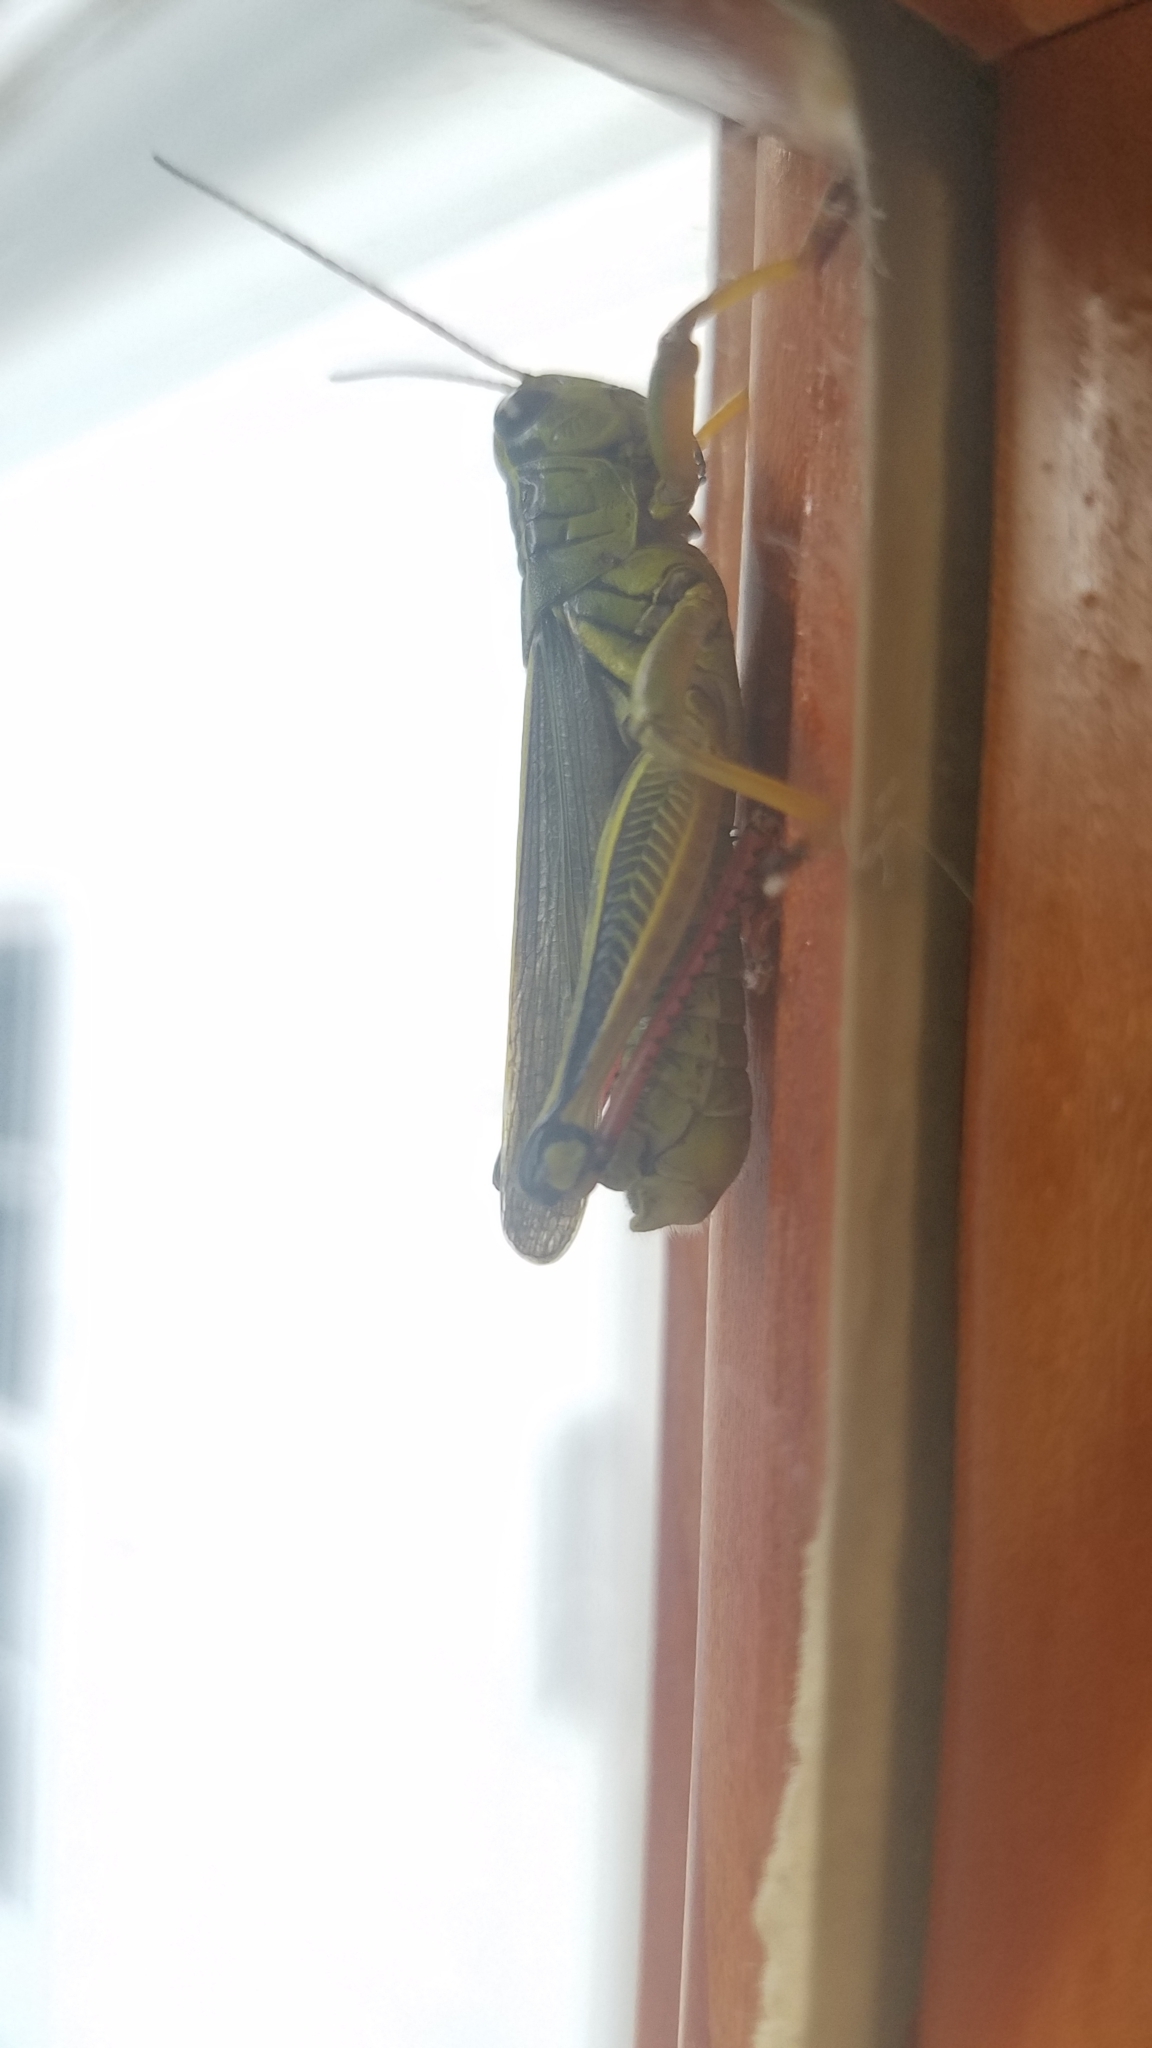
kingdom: Animalia
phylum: Arthropoda
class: Insecta
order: Orthoptera
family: Acrididae
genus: Melanoplus
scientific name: Melanoplus bivittatus
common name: Two-striped grasshopper
